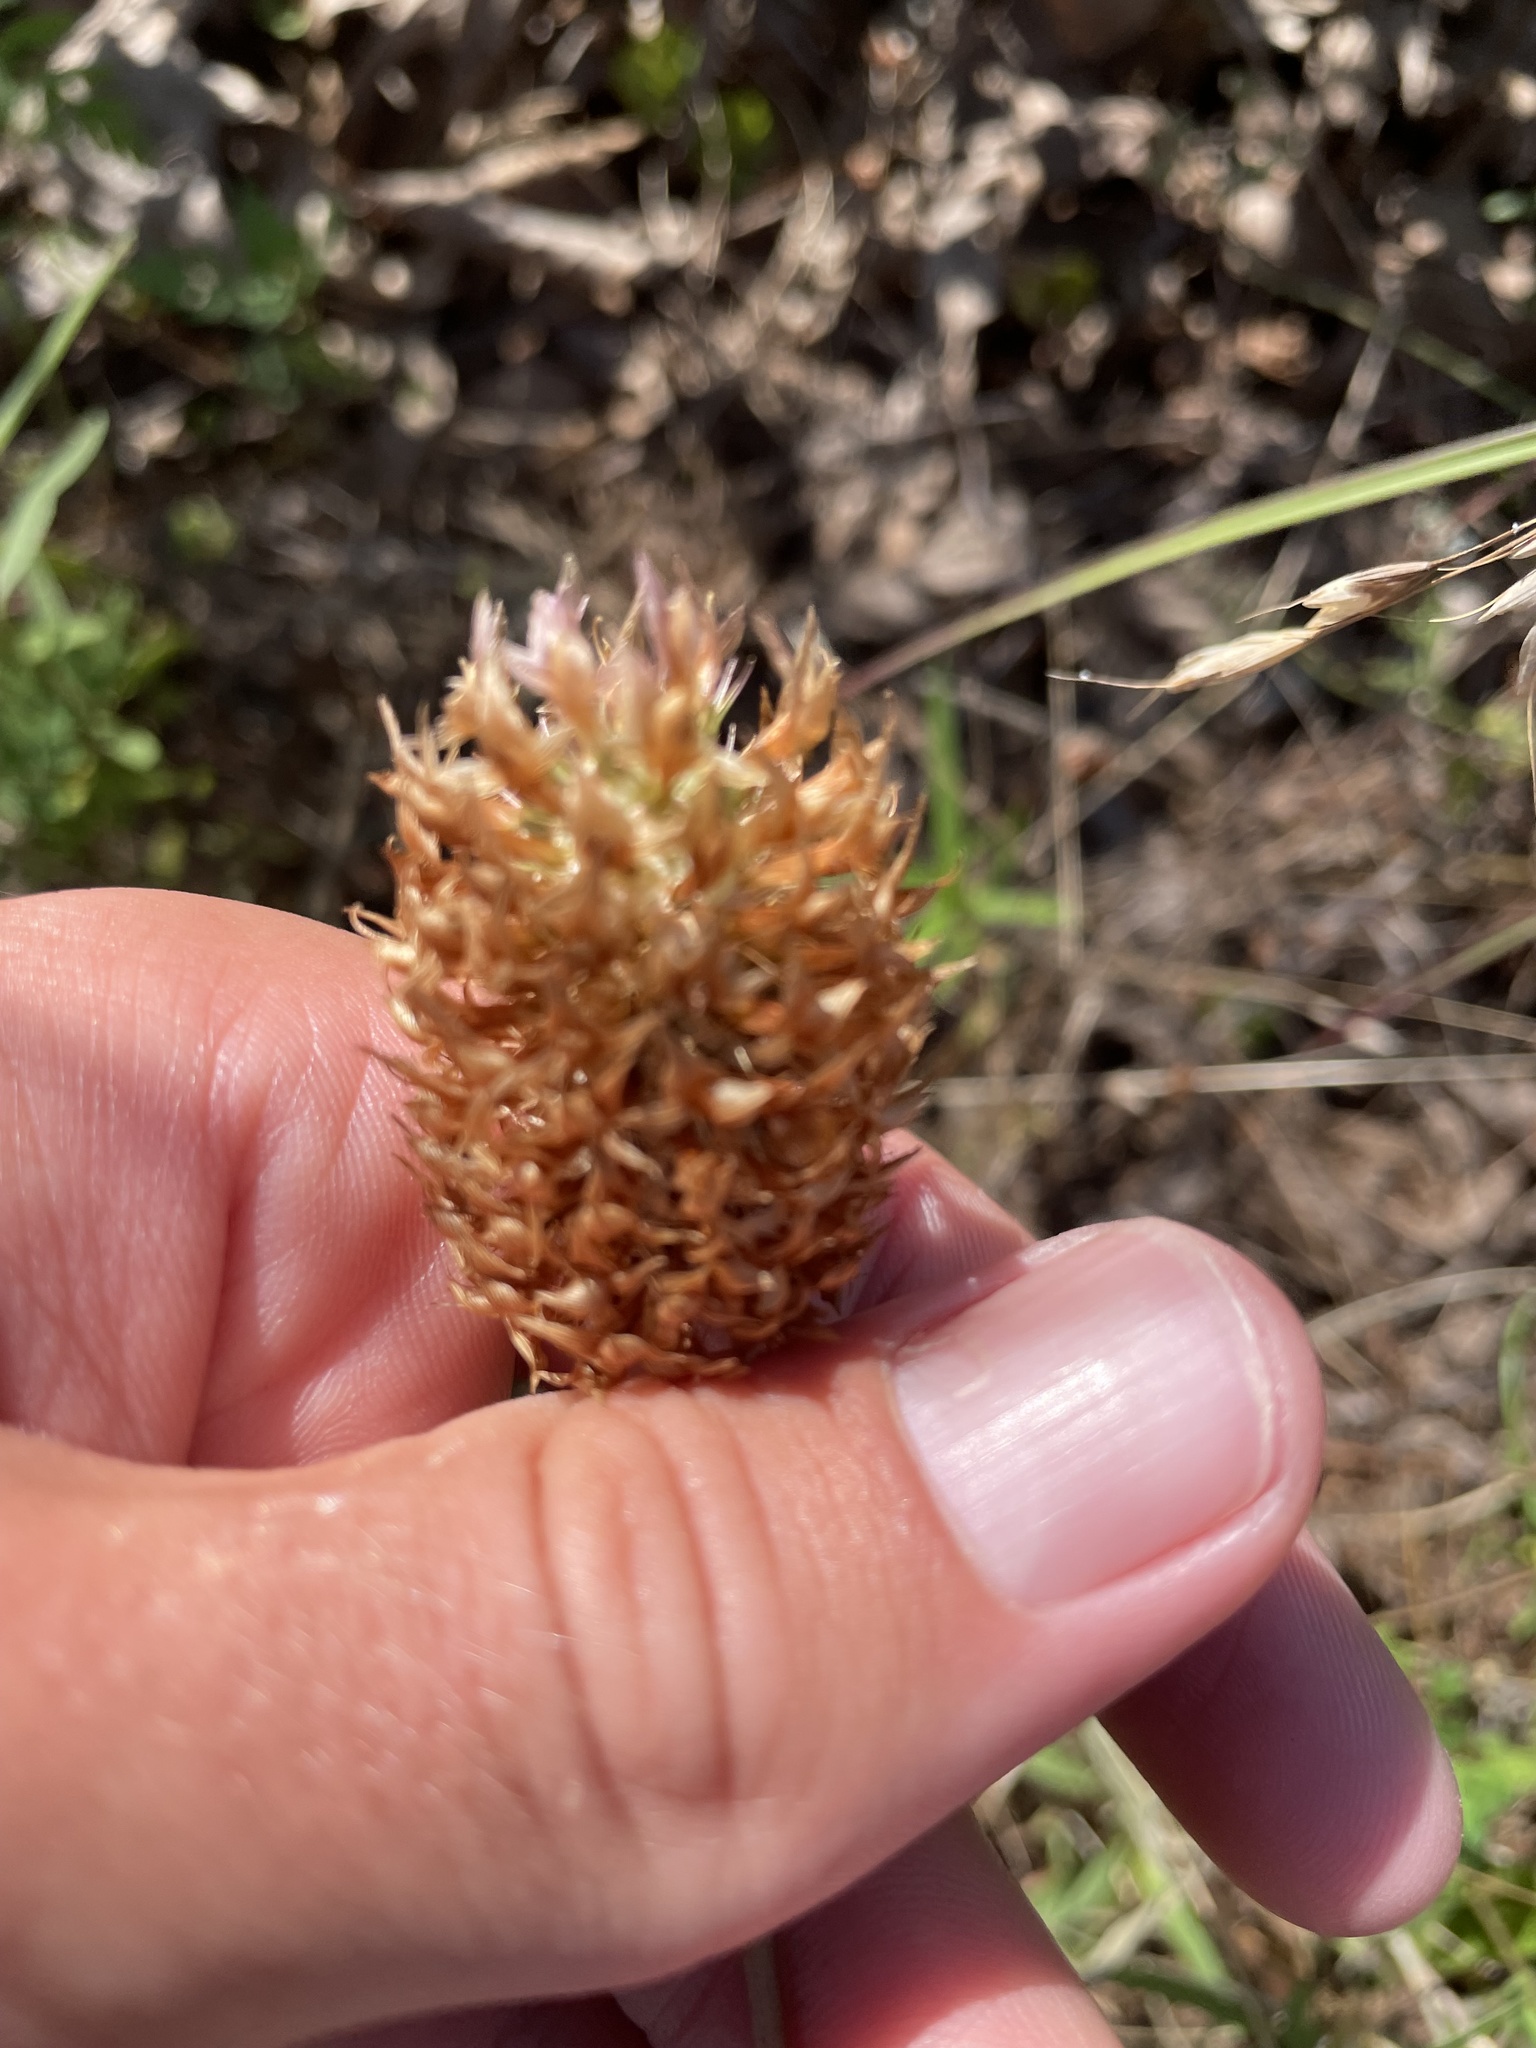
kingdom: Plantae
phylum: Tracheophyta
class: Magnoliopsida
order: Fabales
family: Fabaceae
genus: Trifolium
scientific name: Trifolium vesiculosum
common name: Arrowleaf clover
